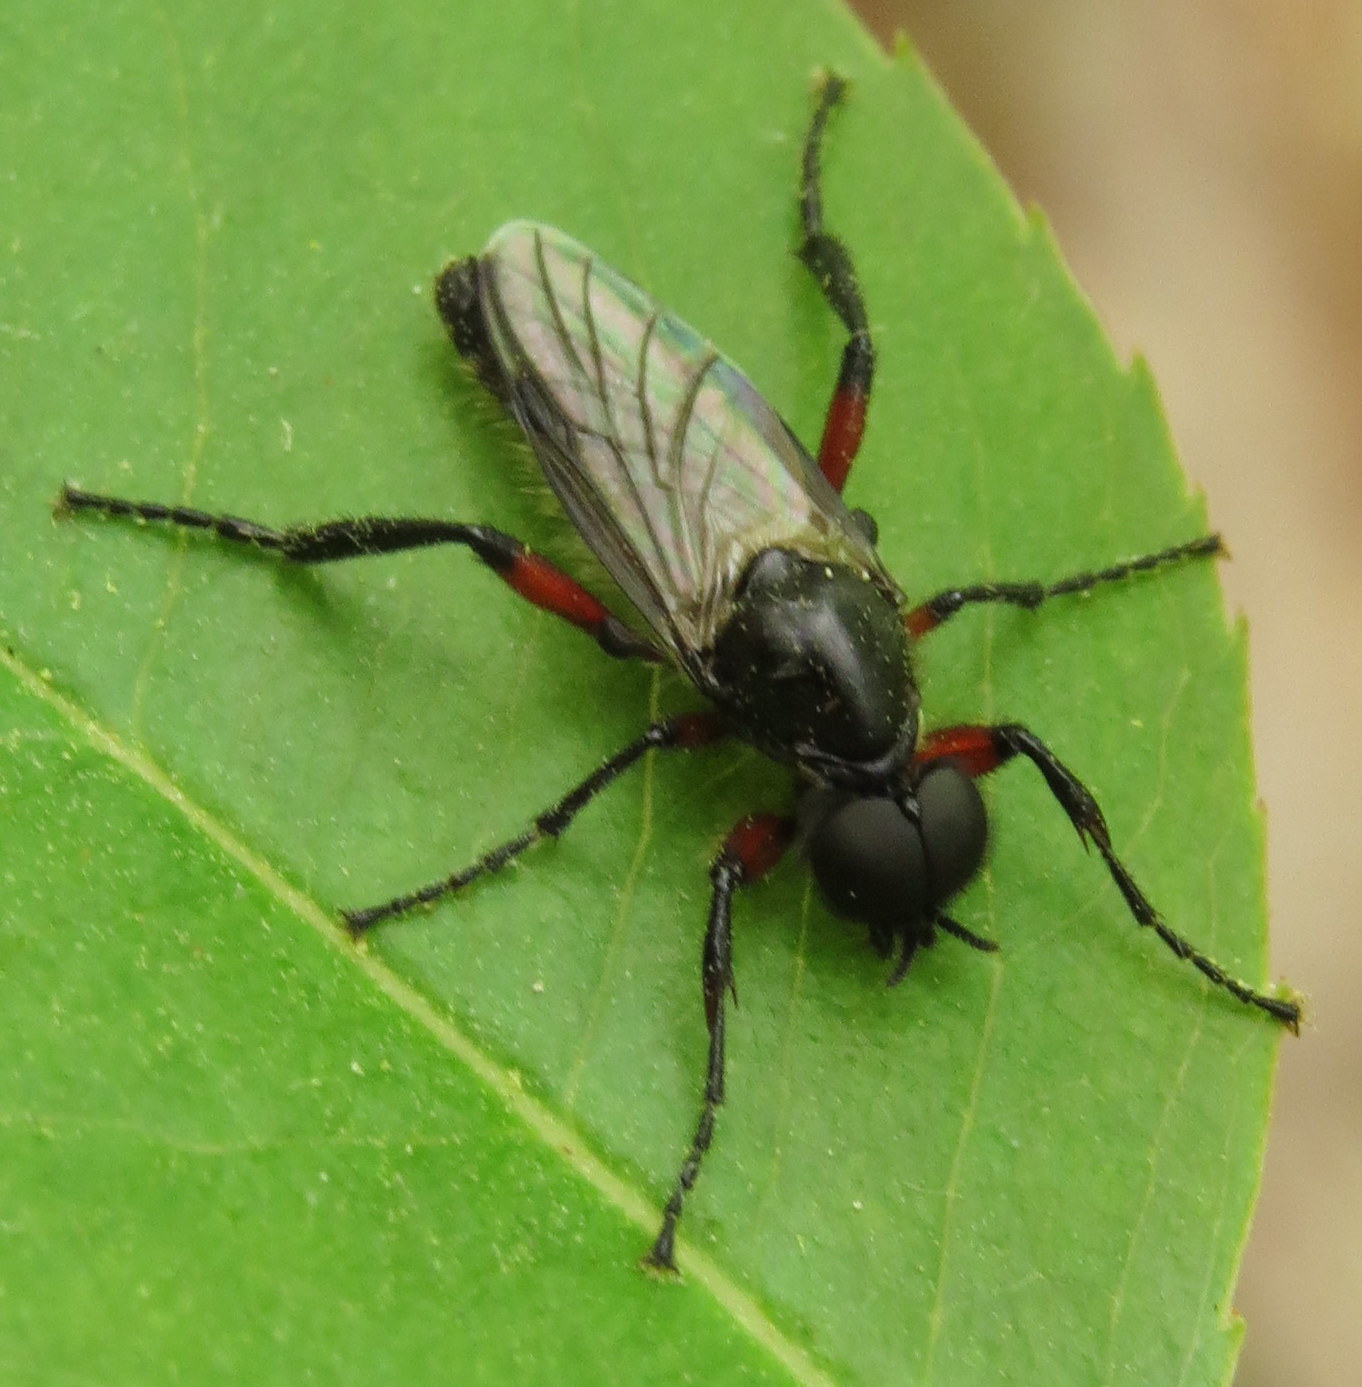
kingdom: Animalia
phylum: Arthropoda
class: Insecta
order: Diptera
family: Bibionidae
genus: Bibio
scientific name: Bibio femoratus
